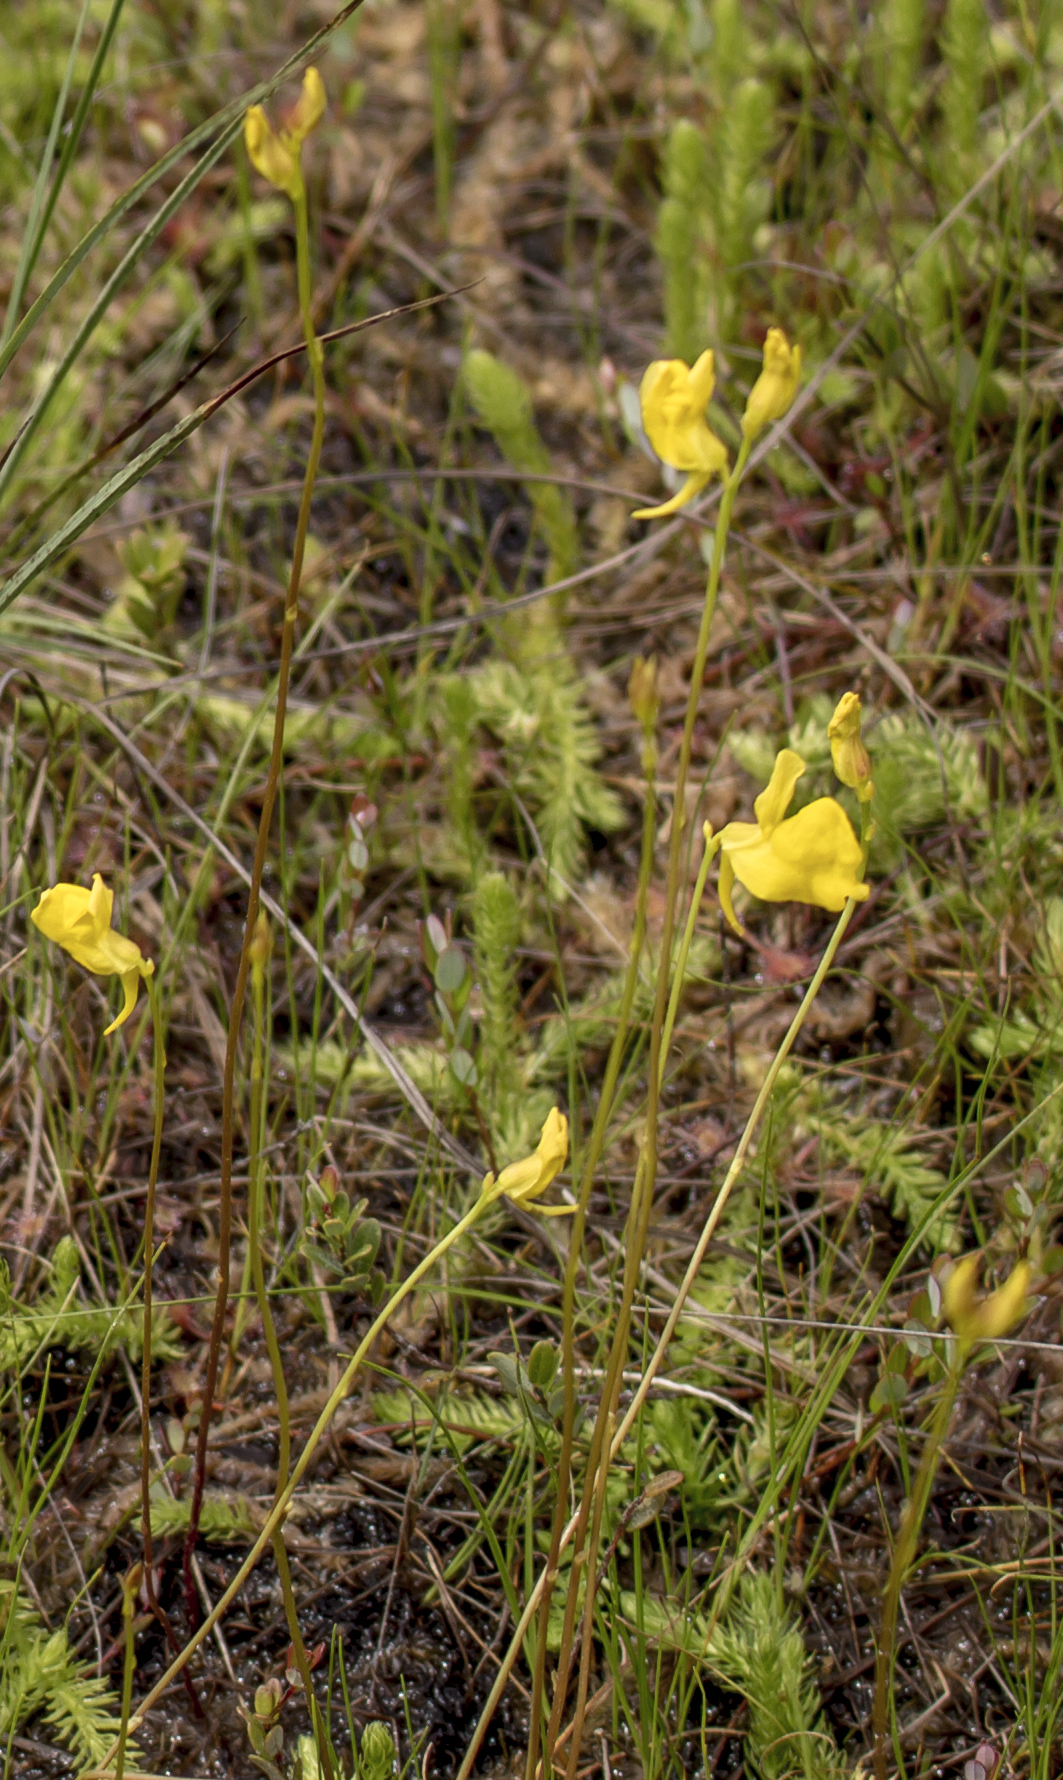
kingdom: Plantae
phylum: Tracheophyta
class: Magnoliopsida
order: Lamiales
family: Lentibulariaceae
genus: Utricularia
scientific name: Utricularia cornuta
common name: Horned bladderwort
